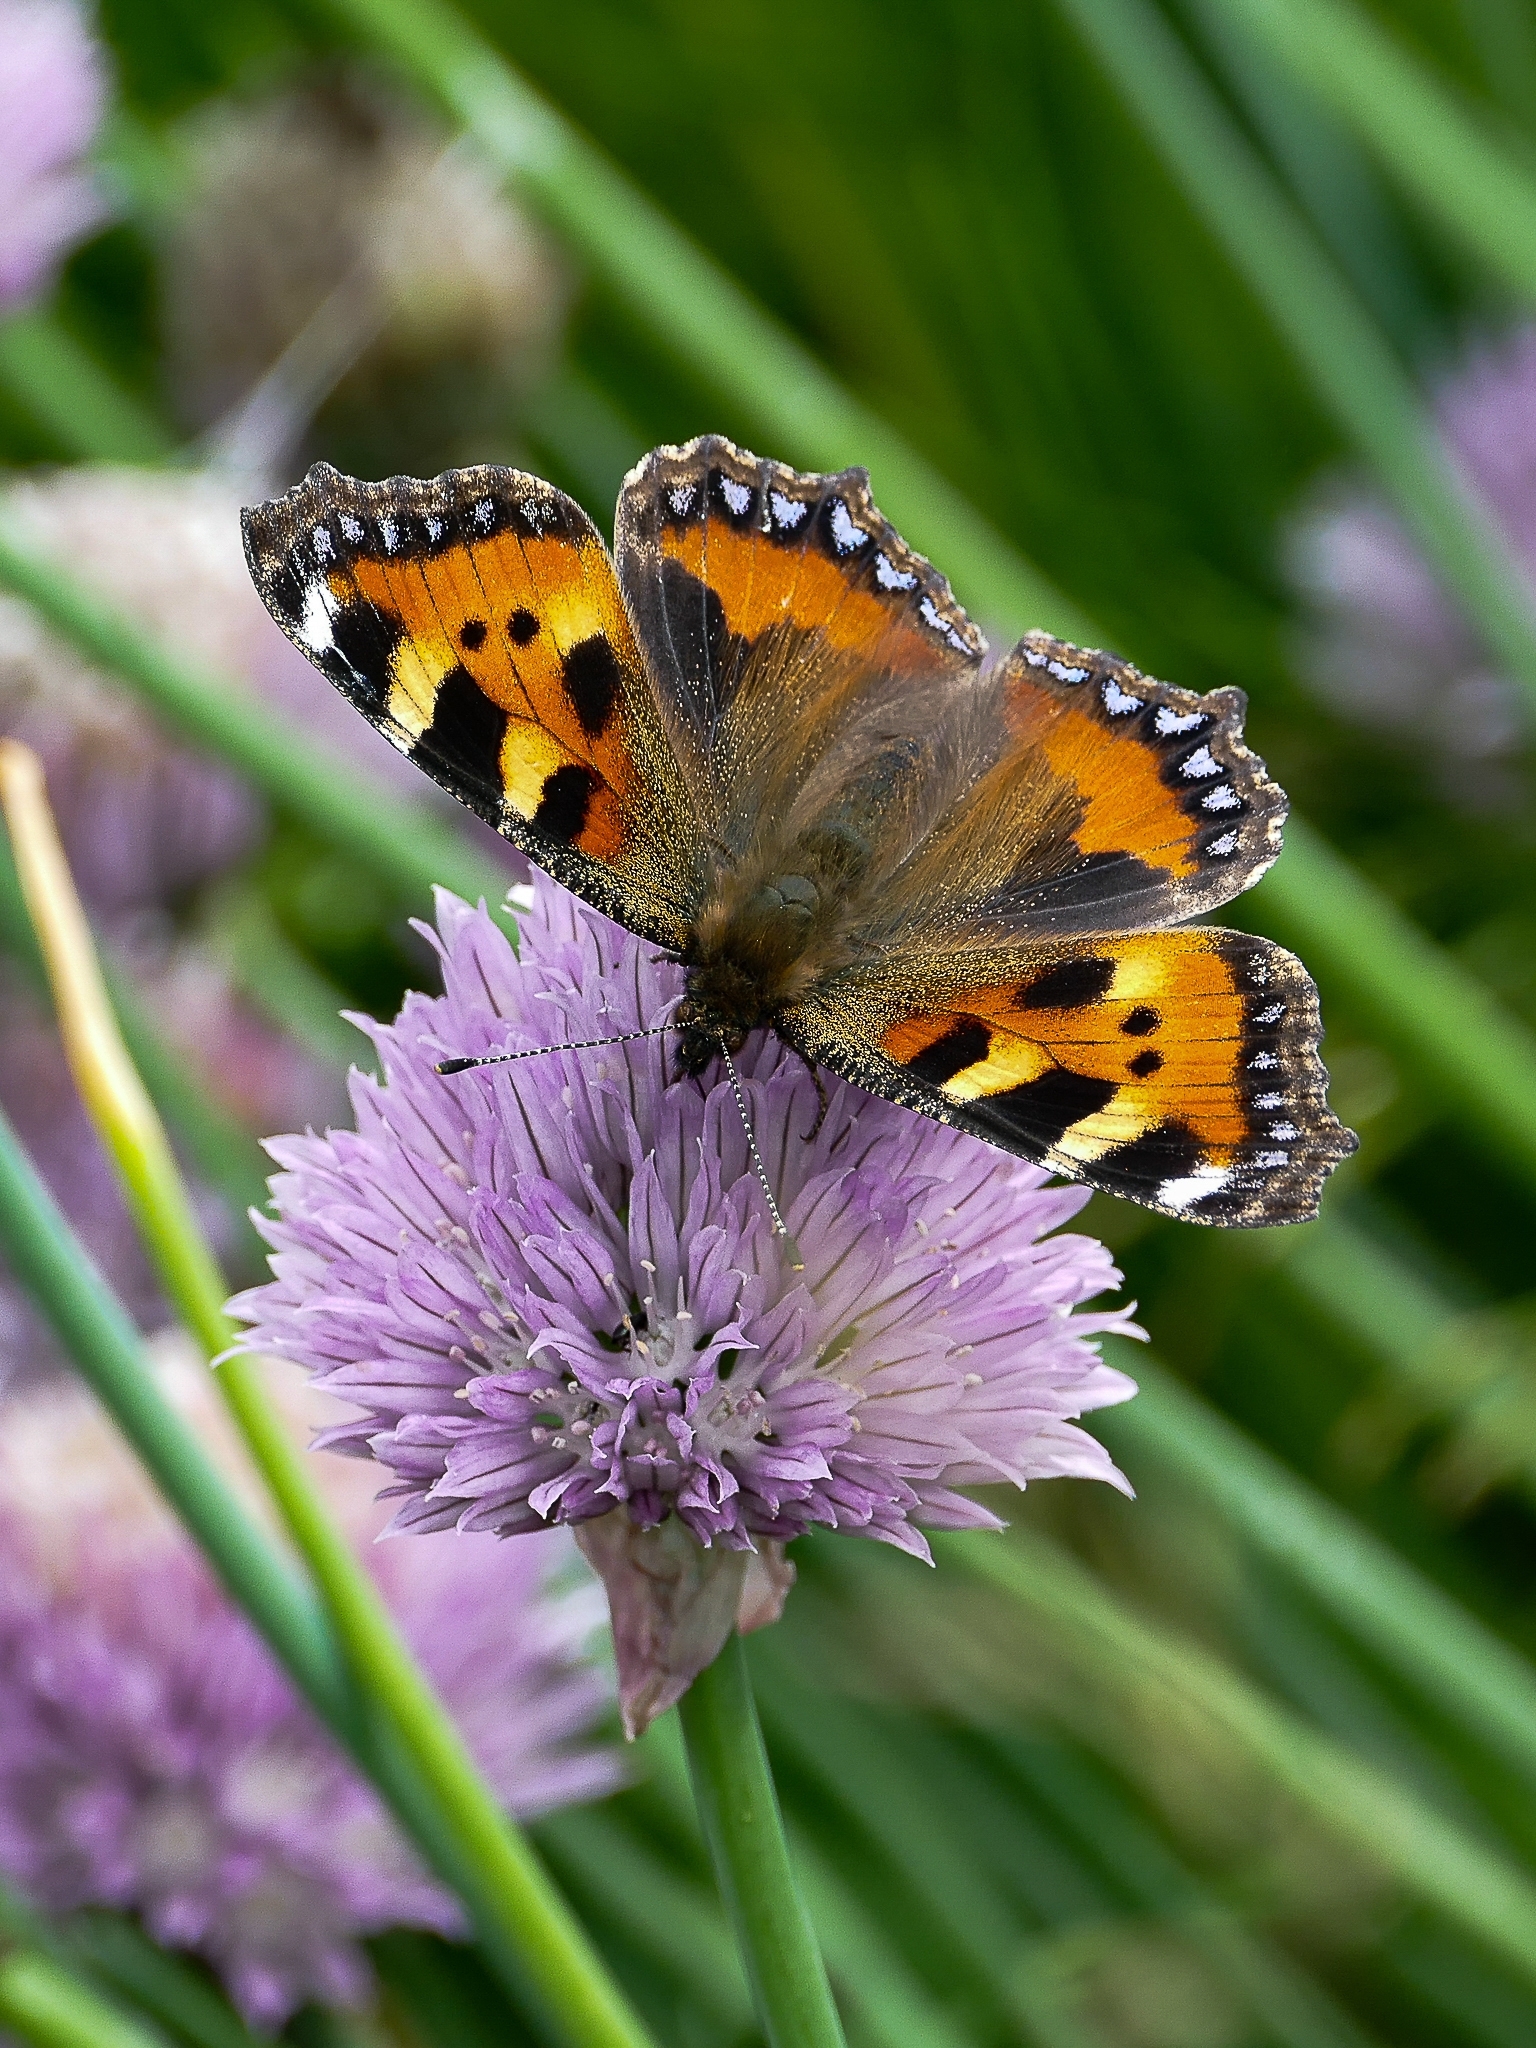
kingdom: Animalia
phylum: Arthropoda
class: Insecta
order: Lepidoptera
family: Nymphalidae
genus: Aglais
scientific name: Aglais urticae
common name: Small tortoiseshell
